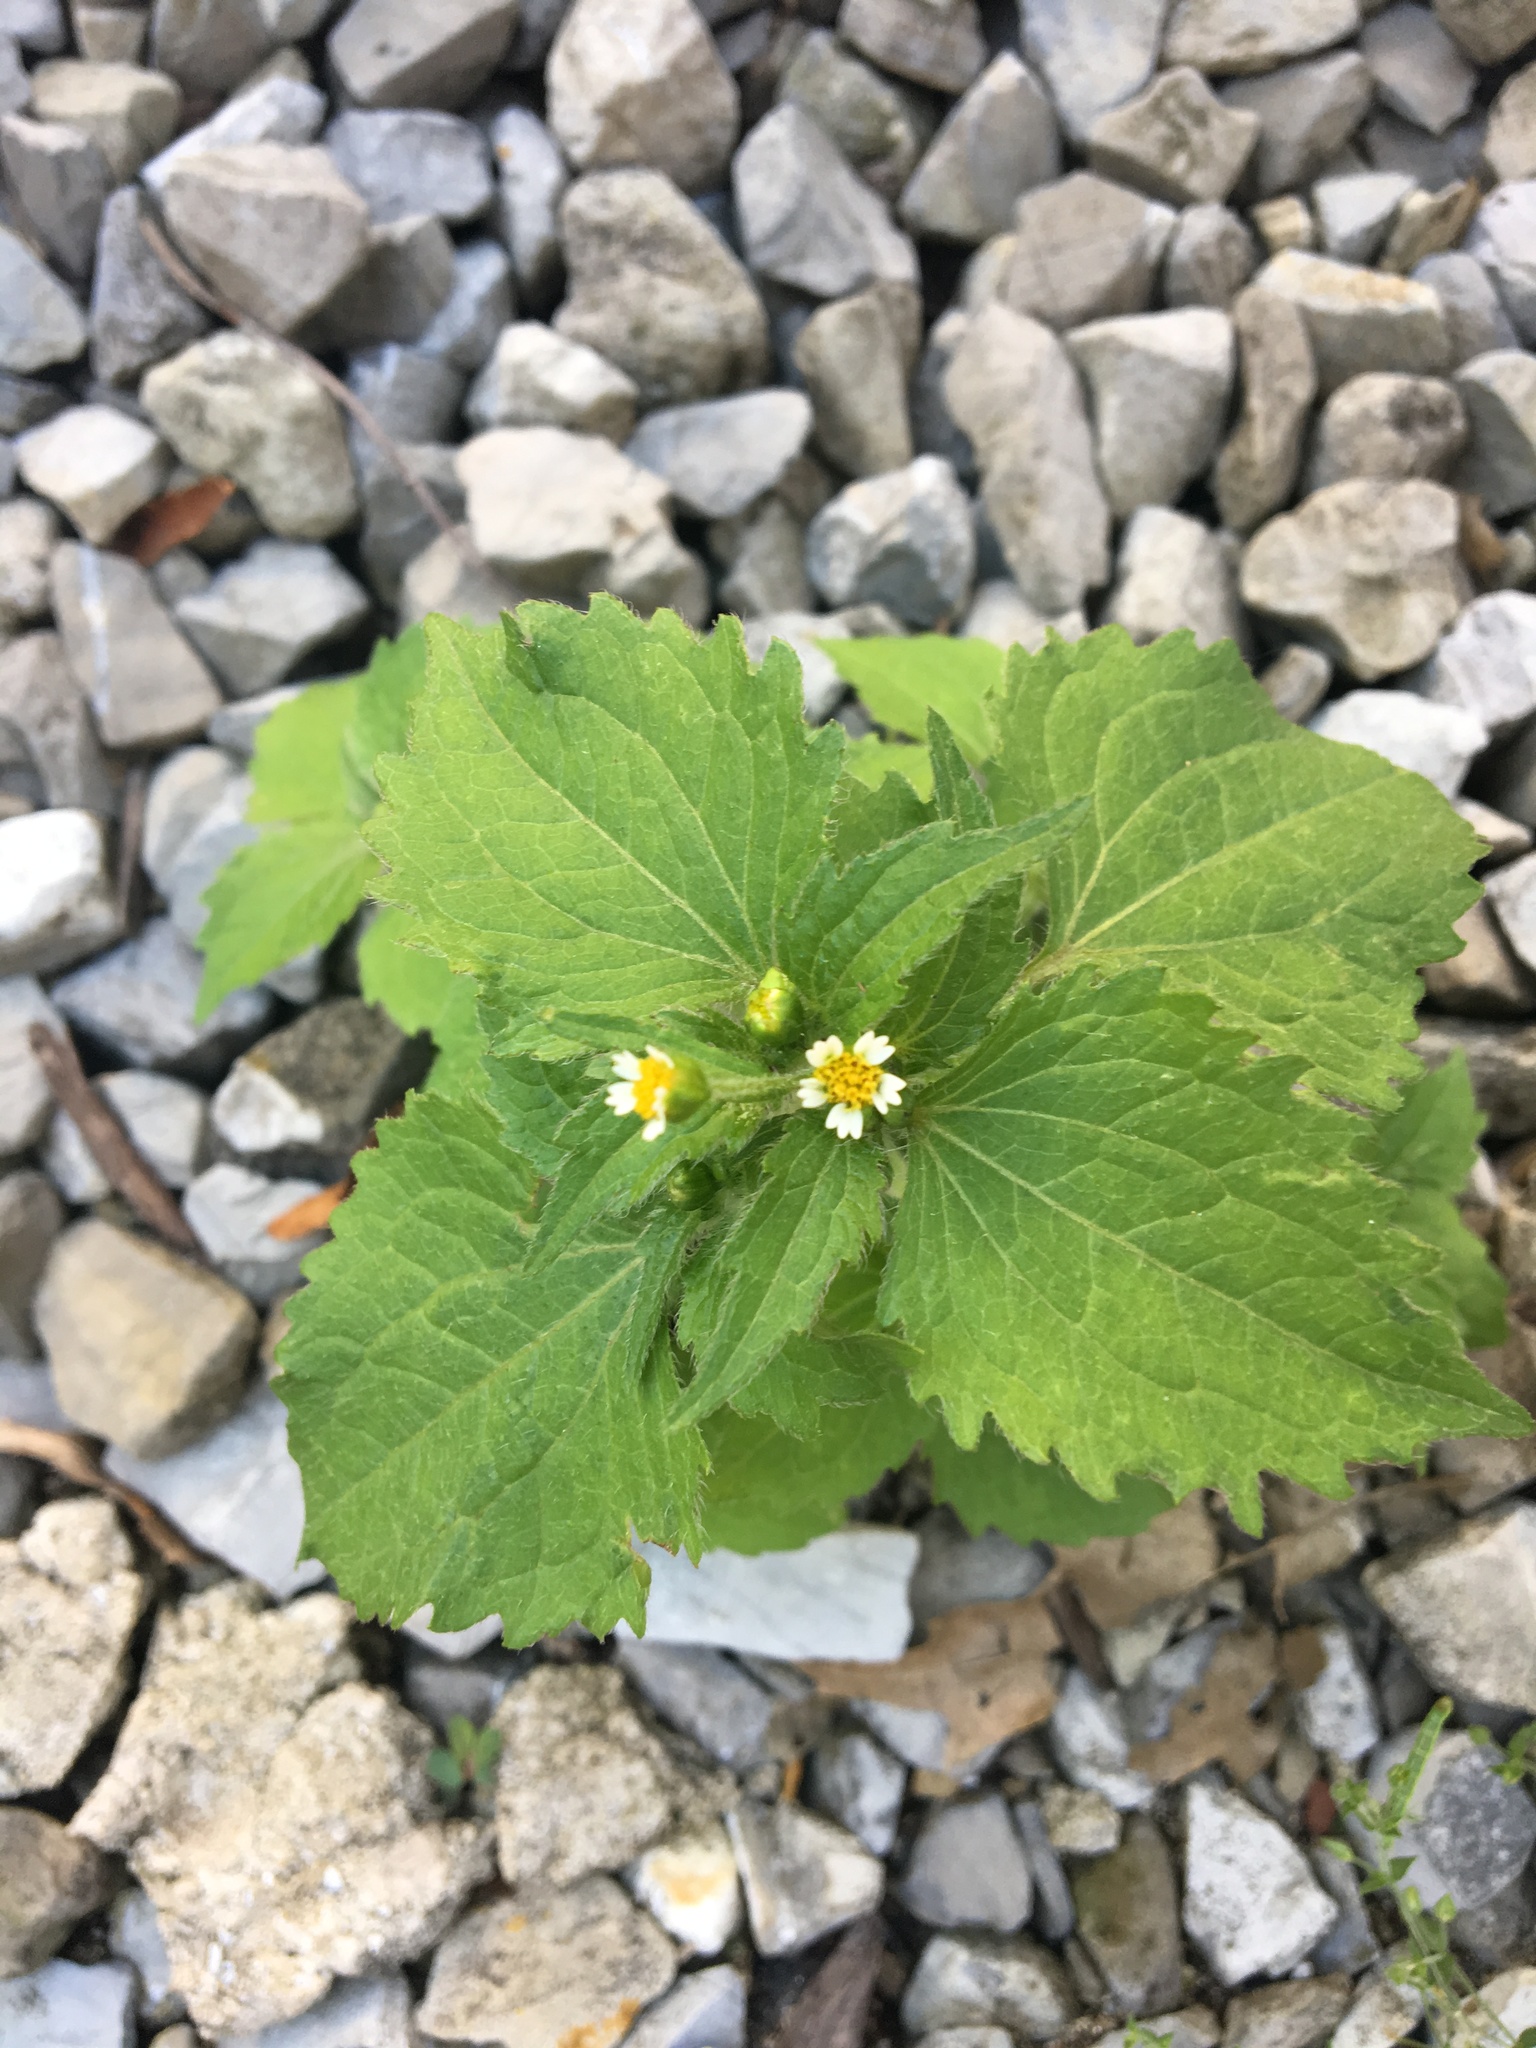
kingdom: Plantae
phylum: Tracheophyta
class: Magnoliopsida
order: Asterales
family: Asteraceae
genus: Galinsoga
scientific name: Galinsoga quadriradiata
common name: Shaggy soldier
